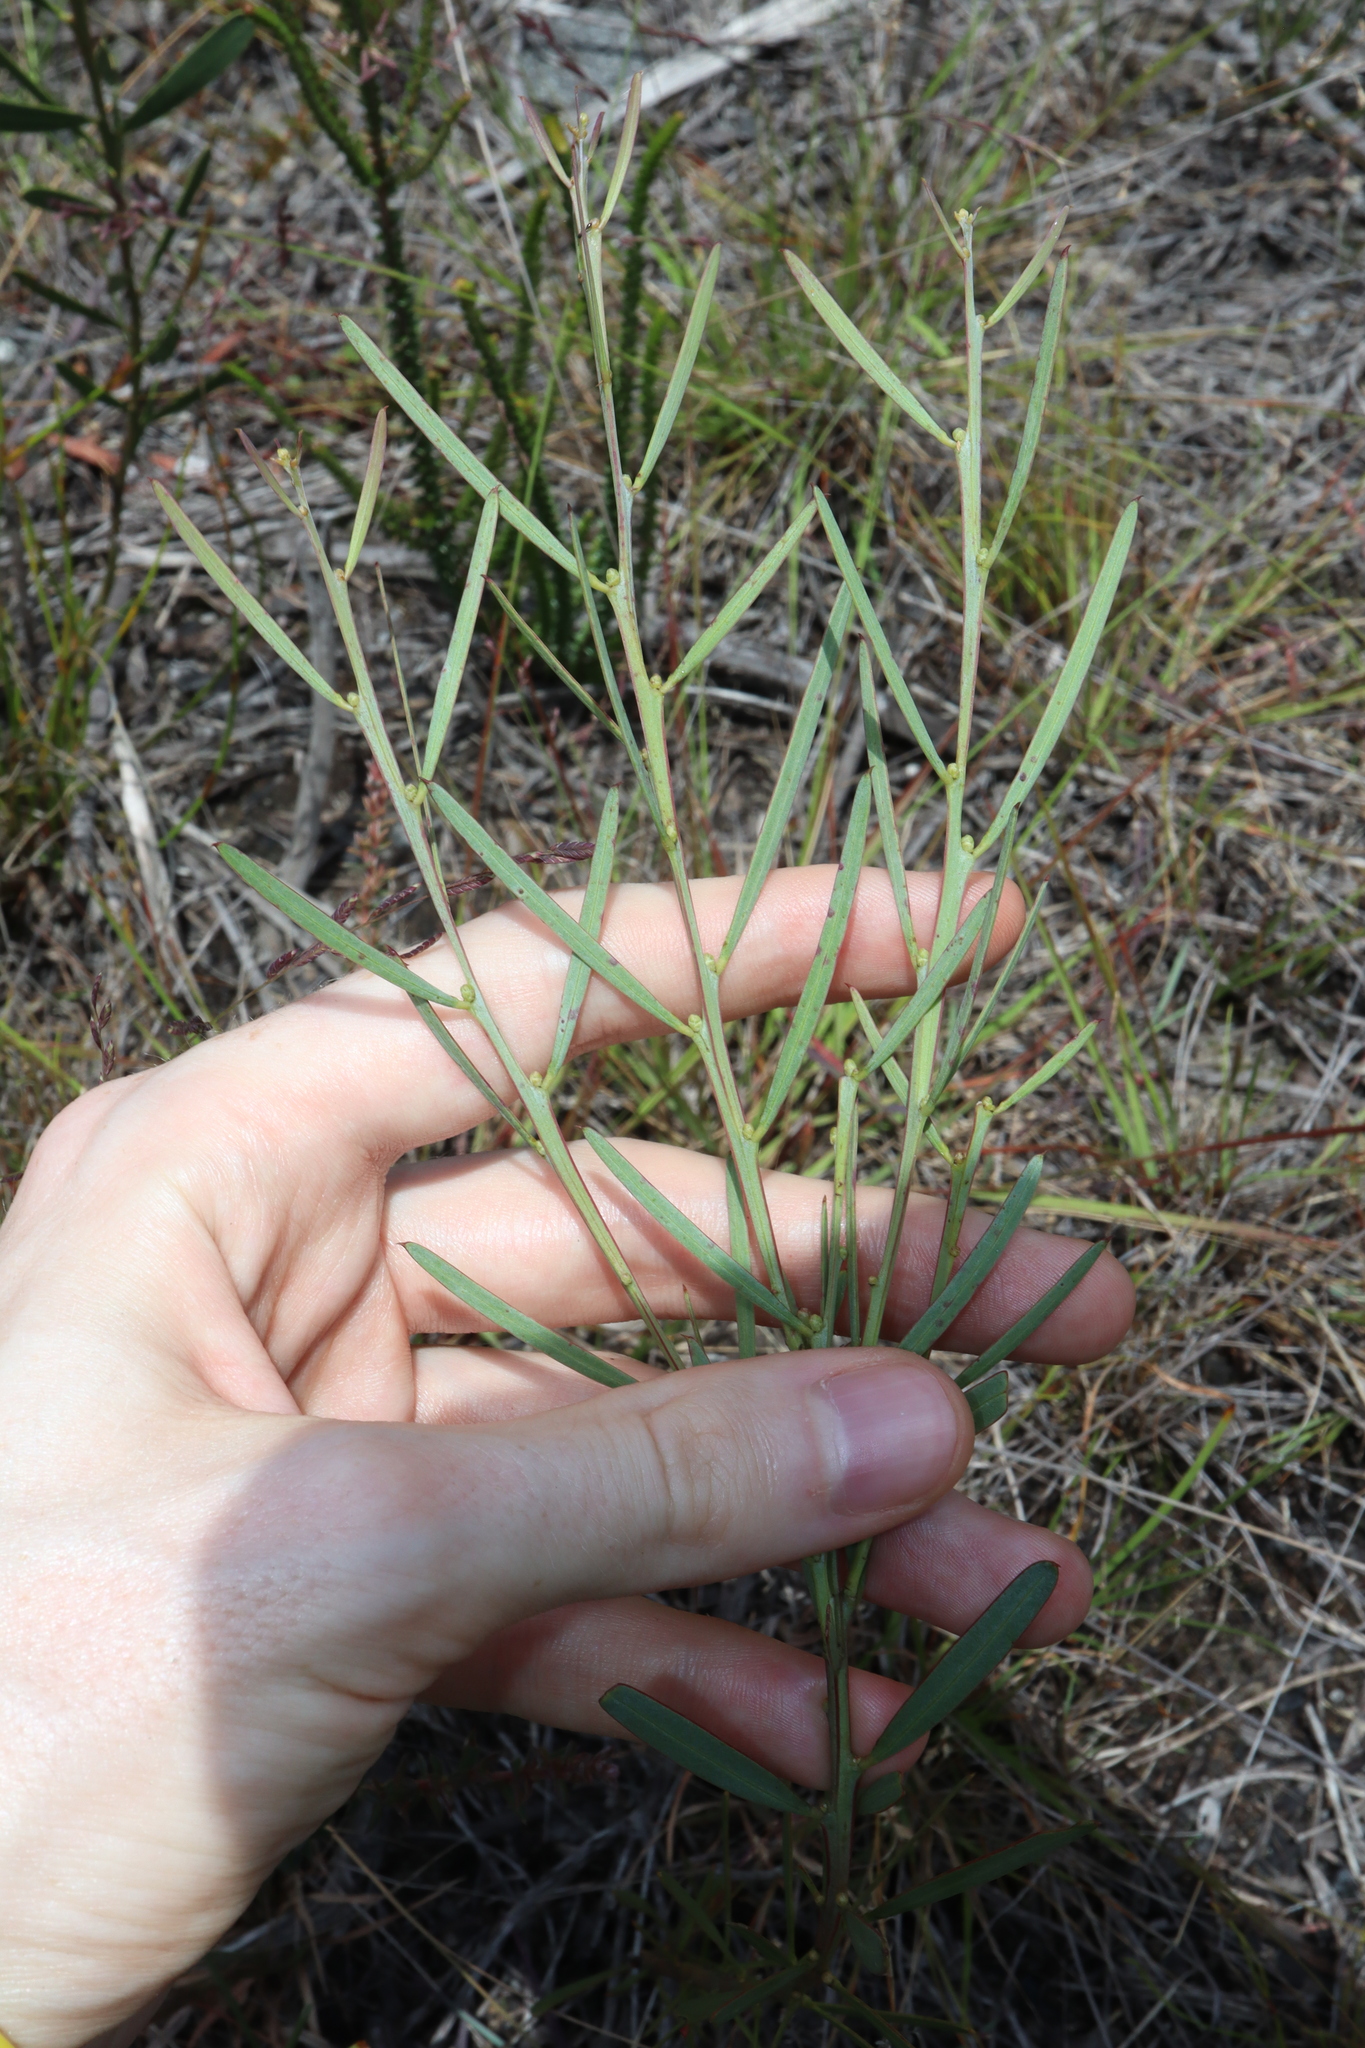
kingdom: Plantae
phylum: Tracheophyta
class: Magnoliopsida
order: Fabales
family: Fabaceae
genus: Acacia
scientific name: Acacia suaveolens
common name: Sweet acacia
